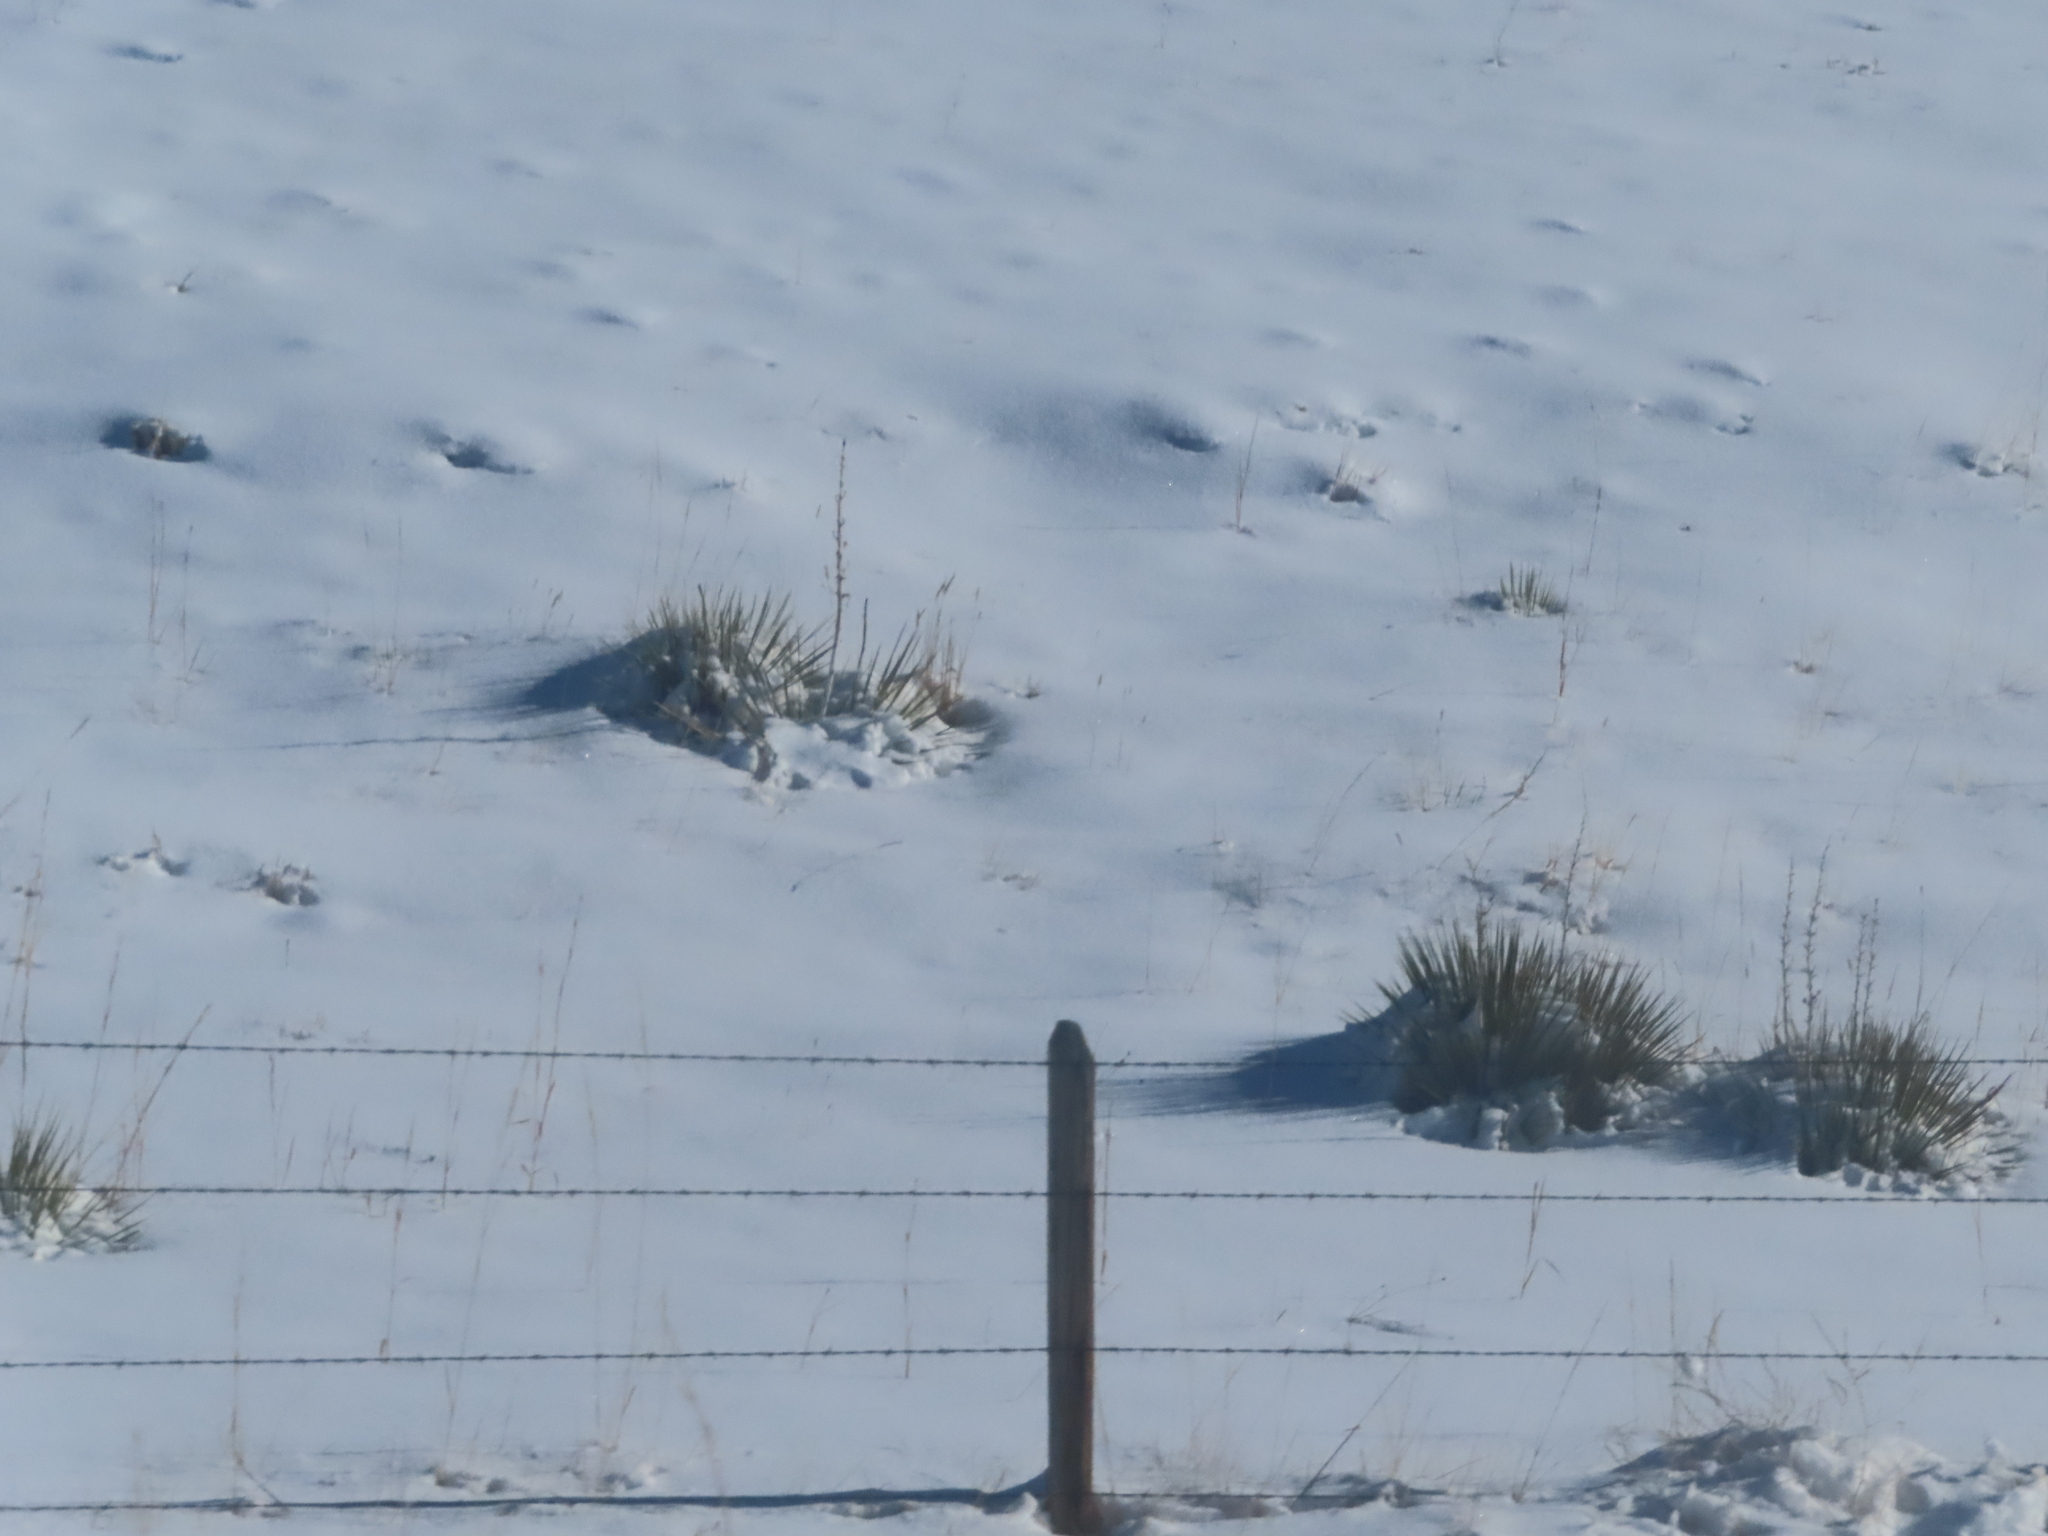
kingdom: Plantae
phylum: Tracheophyta
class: Liliopsida
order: Asparagales
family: Asparagaceae
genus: Yucca
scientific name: Yucca glauca
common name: Great plains yucca
